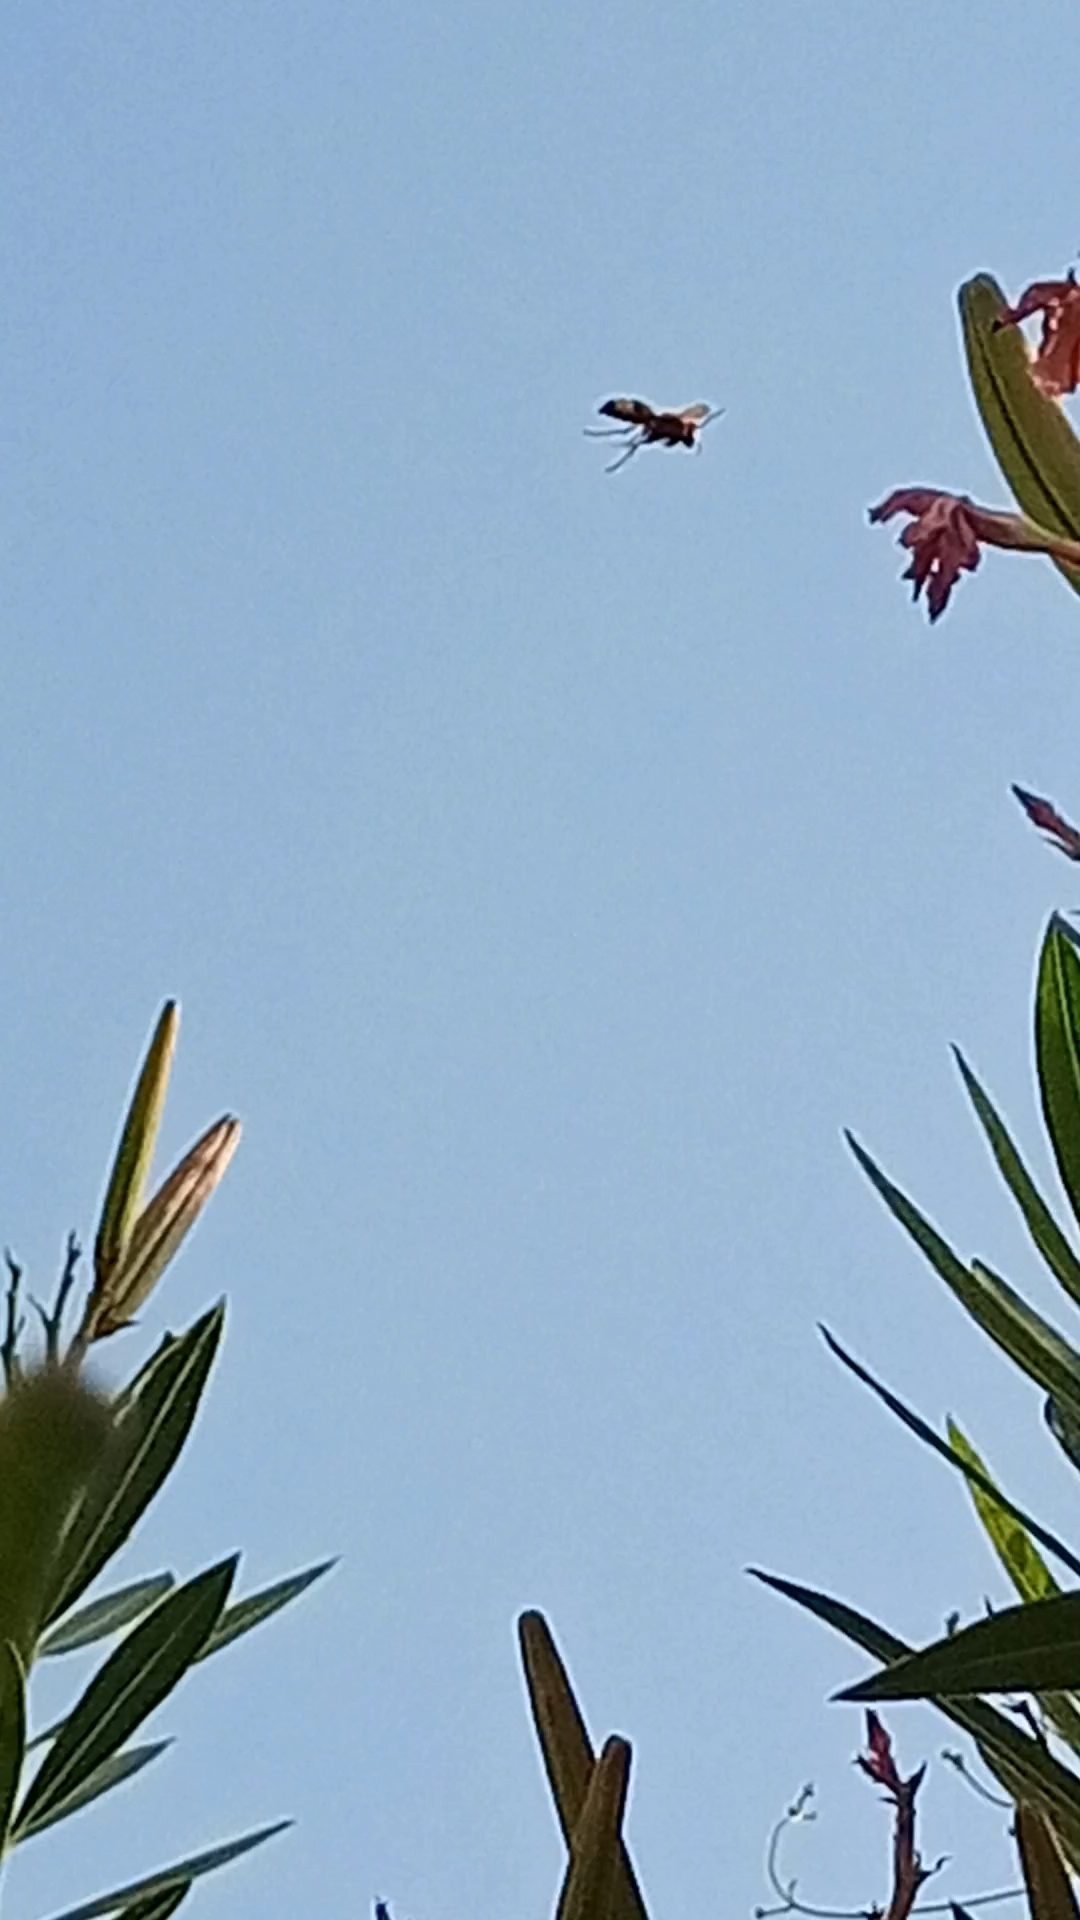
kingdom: Animalia
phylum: Arthropoda
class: Insecta
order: Hymenoptera
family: Vespidae
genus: Vespa
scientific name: Vespa orientalis
